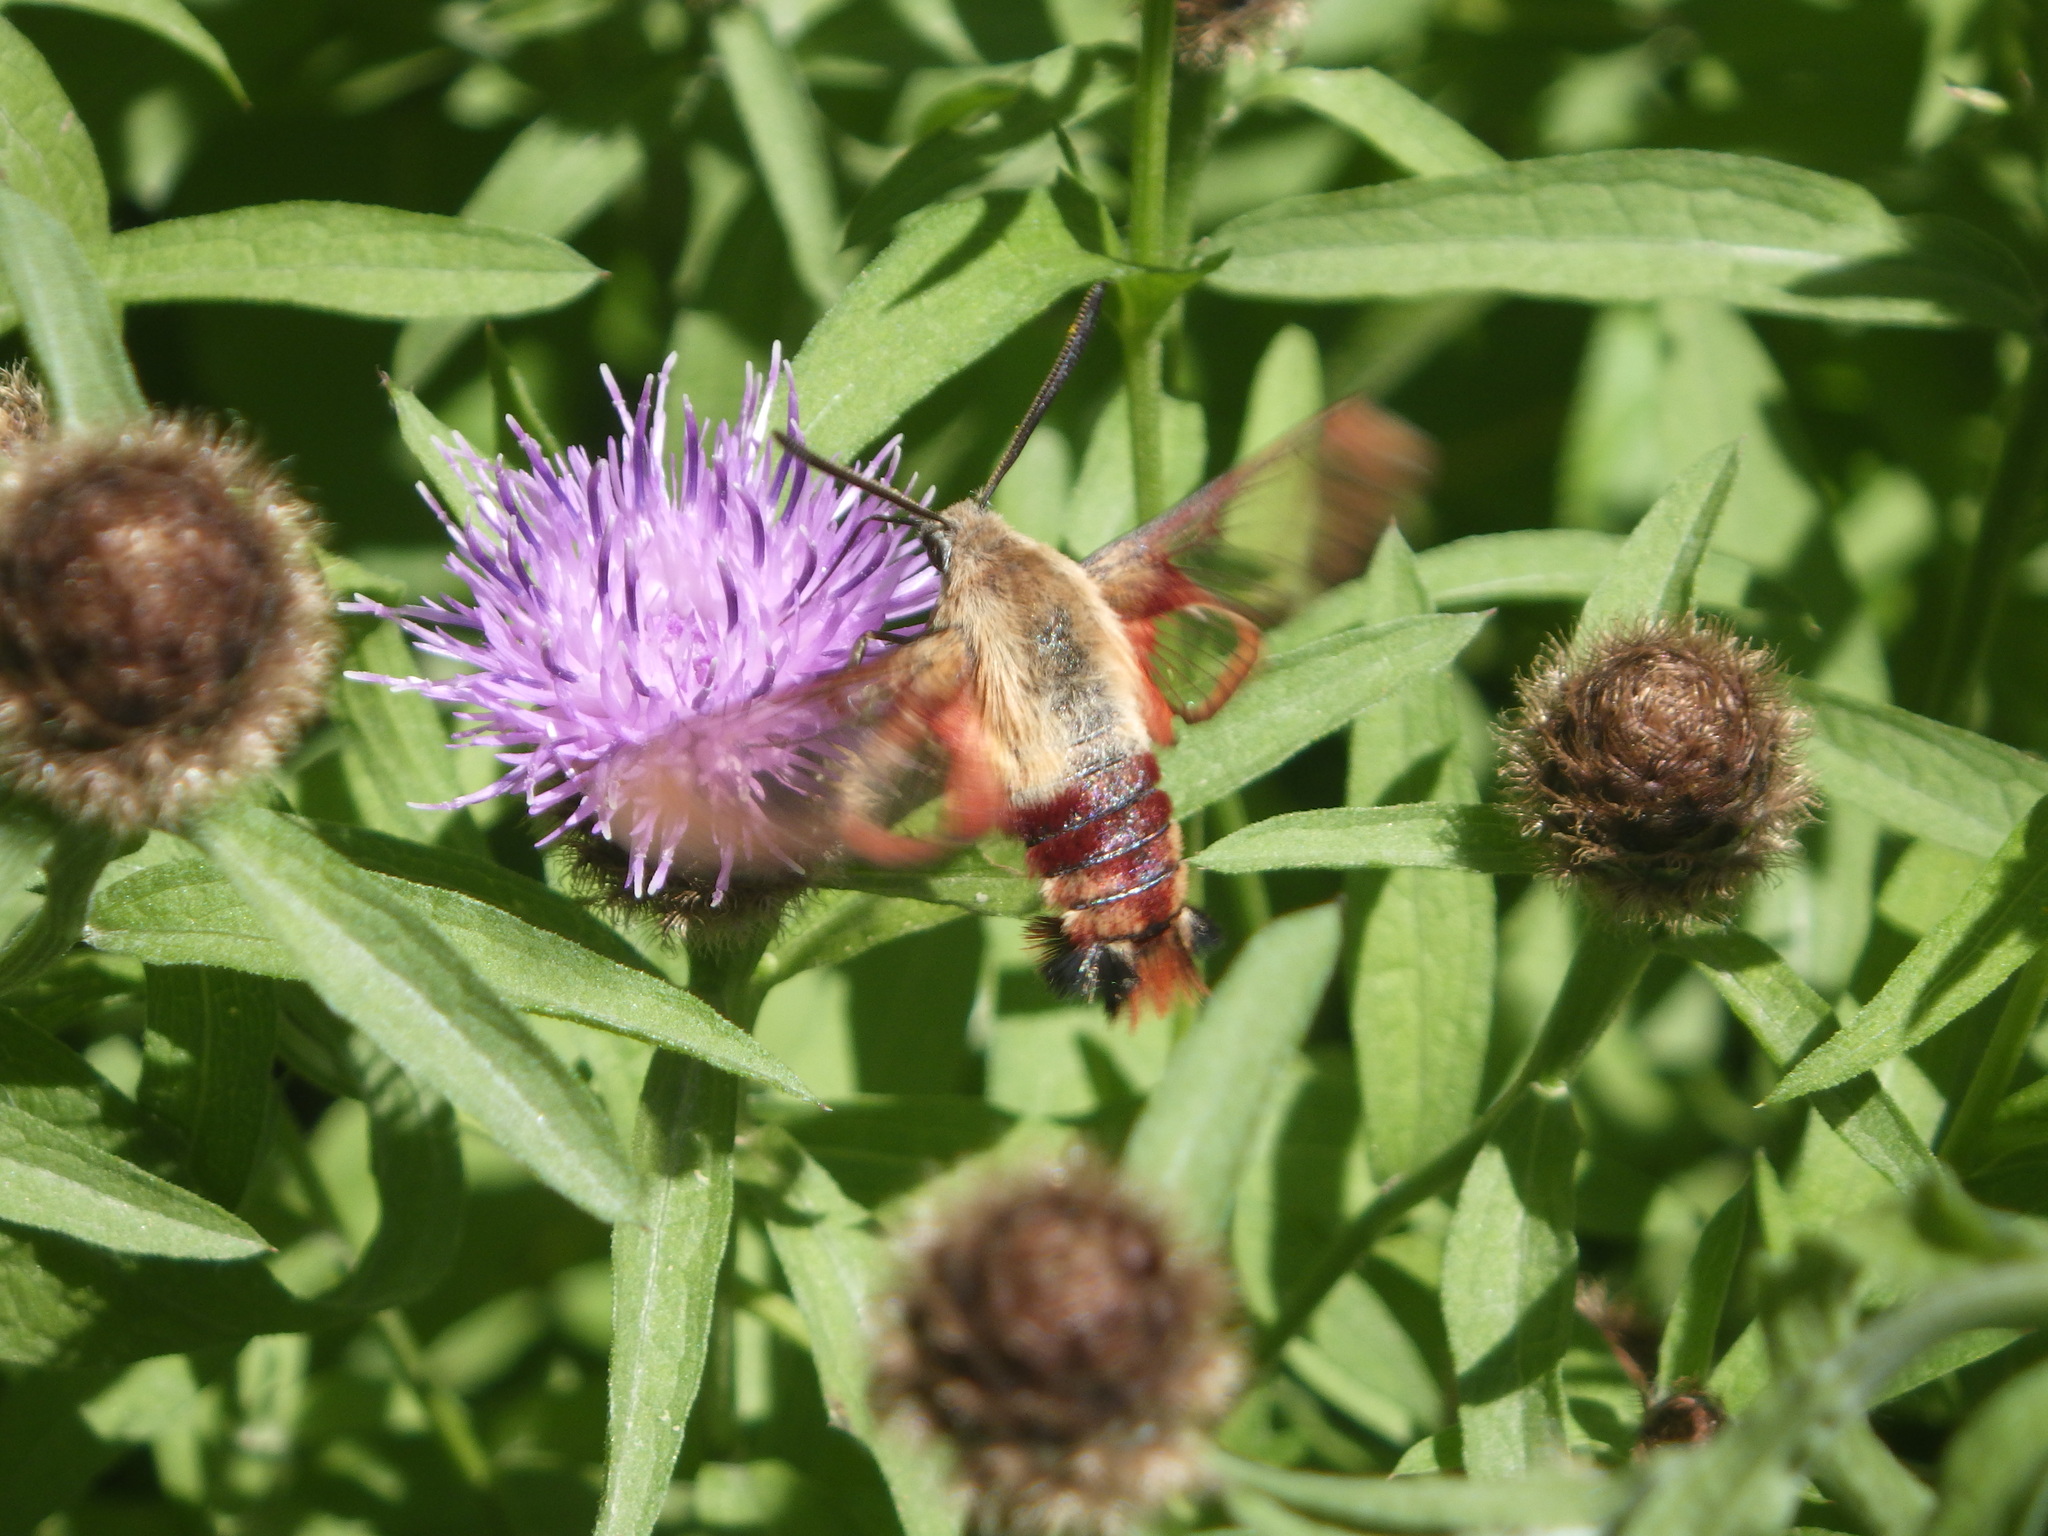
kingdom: Animalia
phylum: Arthropoda
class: Insecta
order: Lepidoptera
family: Sphingidae
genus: Hemaris
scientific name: Hemaris thysbe
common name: Common clear-wing
